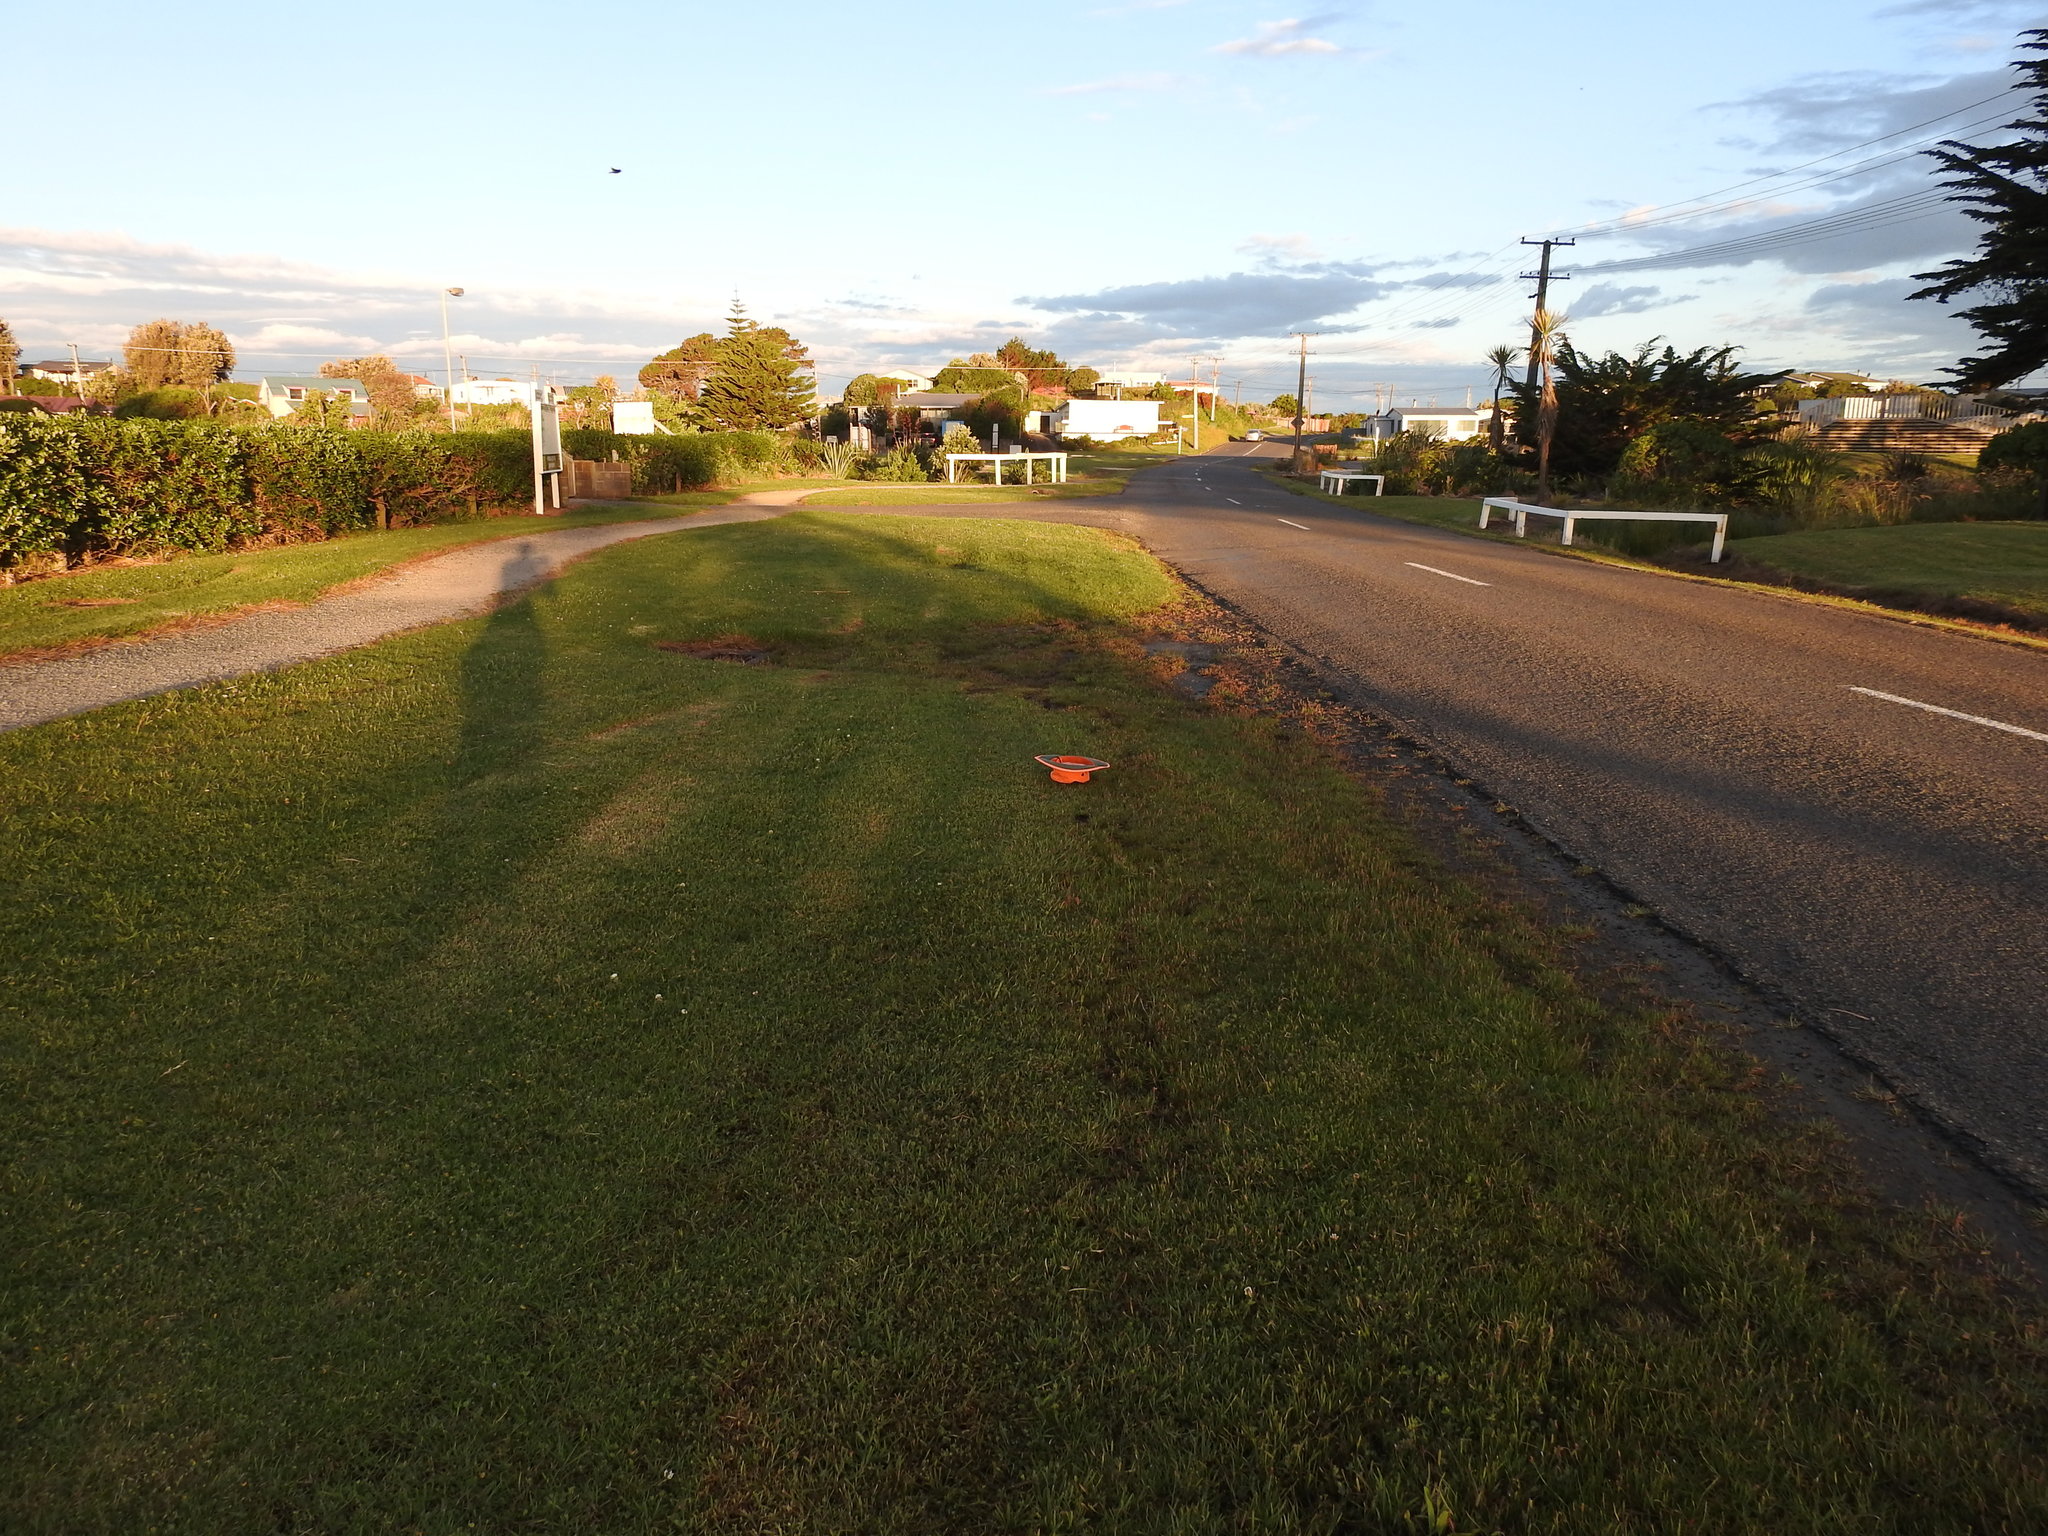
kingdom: Plantae
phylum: Tracheophyta
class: Liliopsida
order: Poales
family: Cyperaceae
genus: Isolepis
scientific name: Isolepis cernua
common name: Slender club-rush
